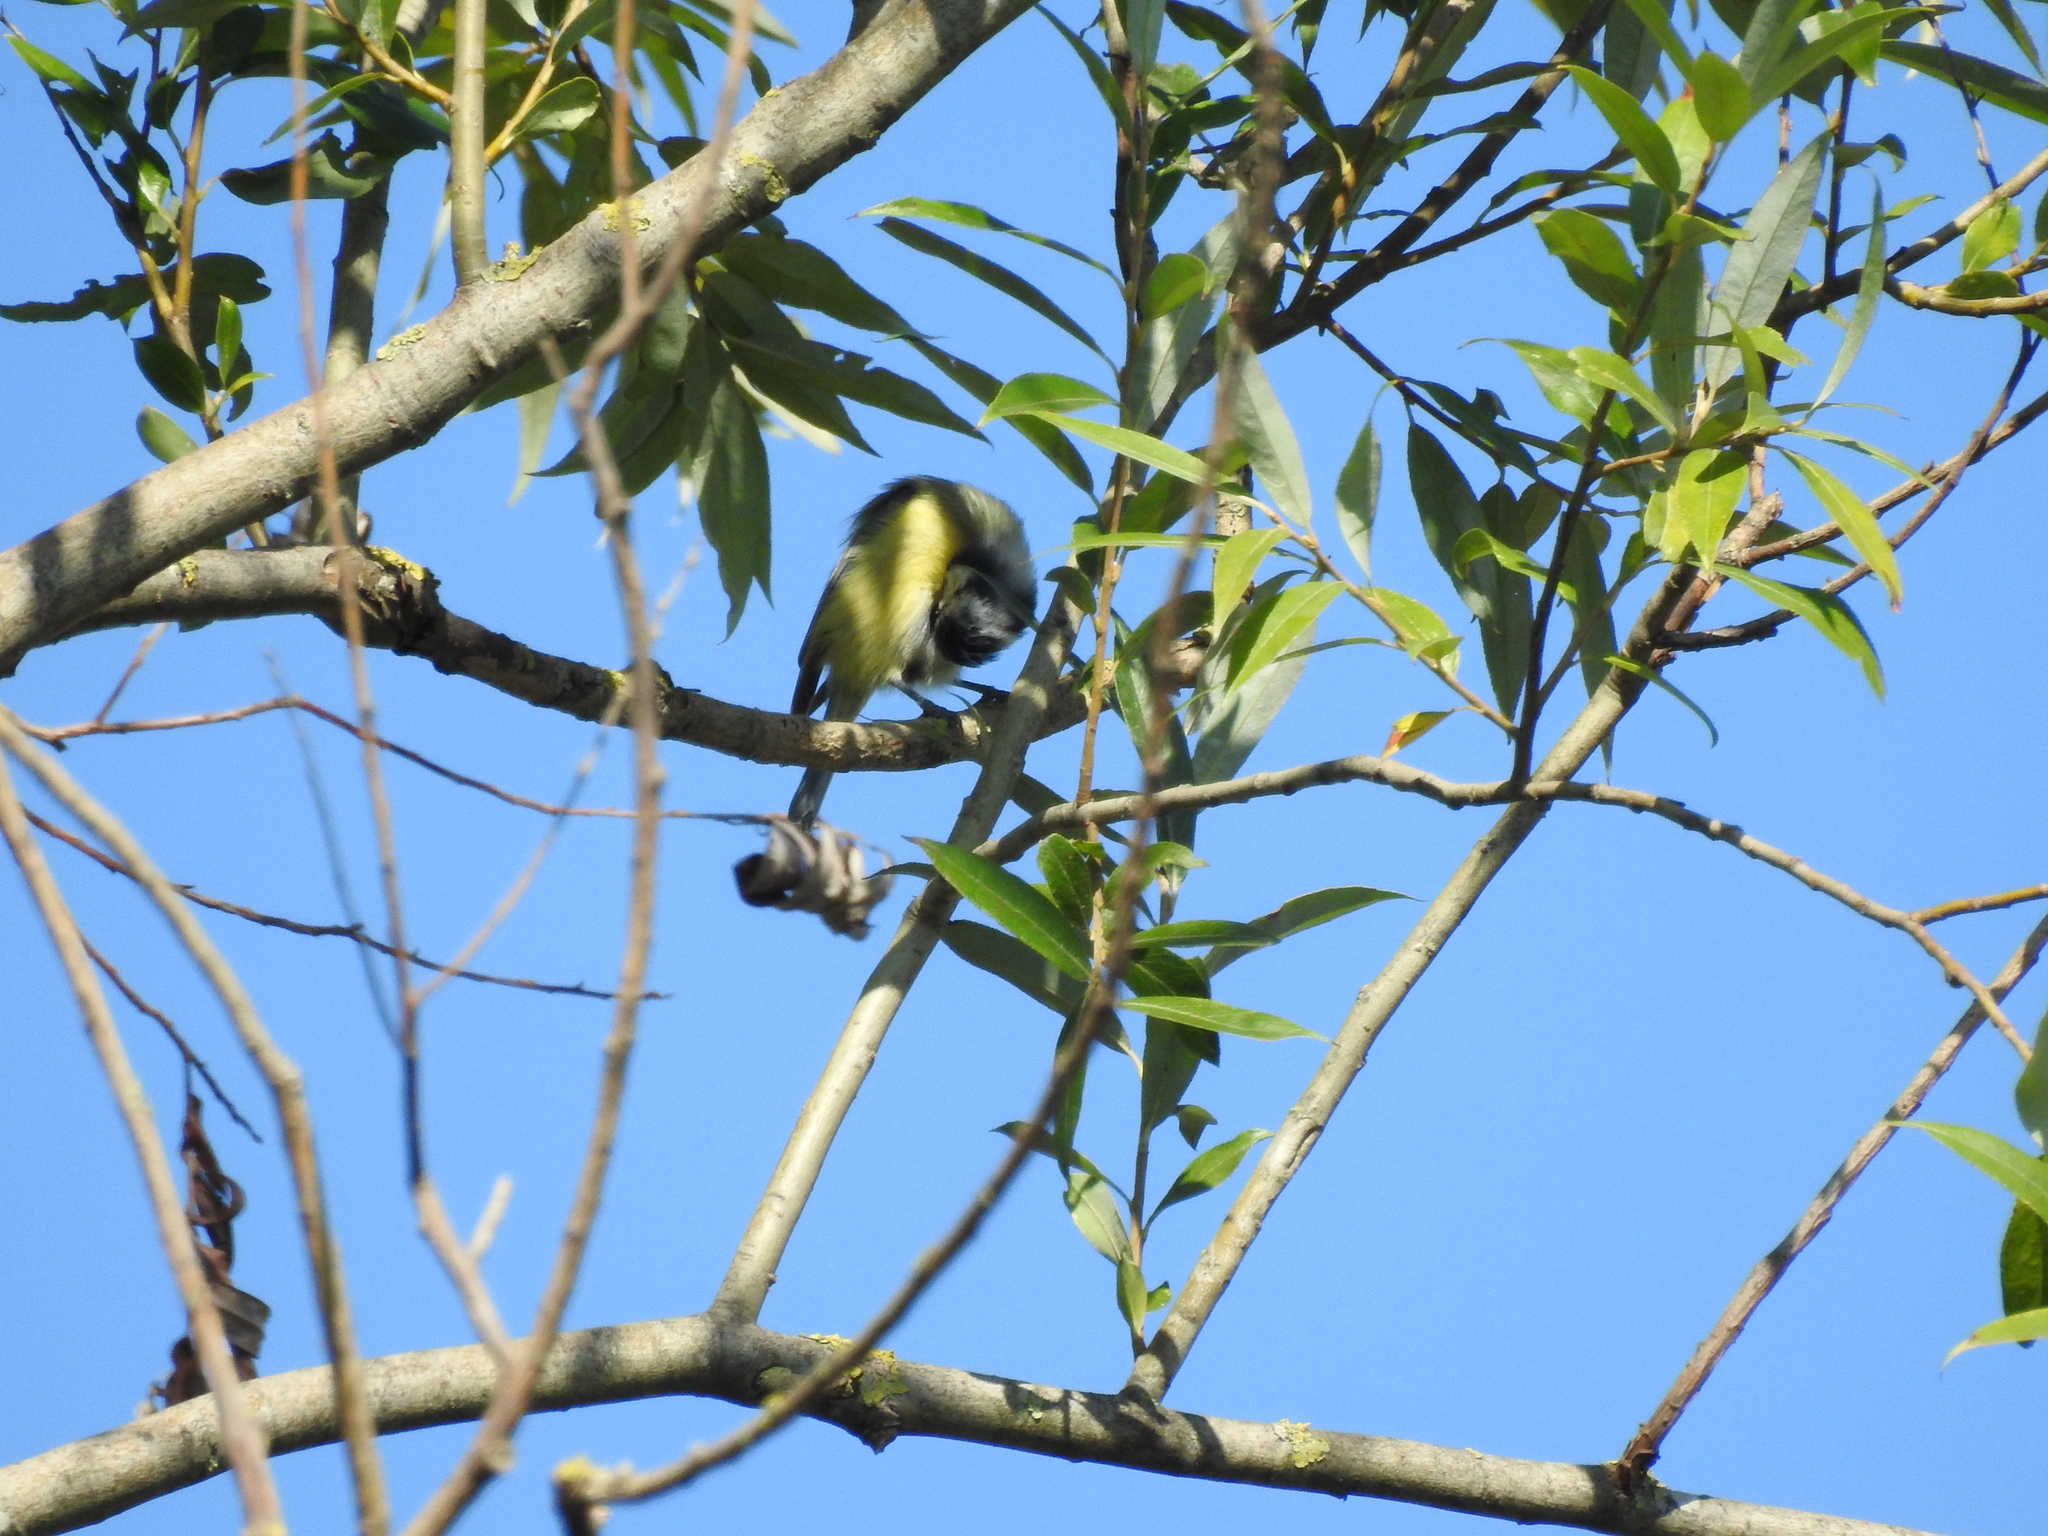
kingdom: Animalia
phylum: Chordata
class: Aves
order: Passeriformes
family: Paridae
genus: Cyanistes
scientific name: Cyanistes caeruleus
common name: Eurasian blue tit
